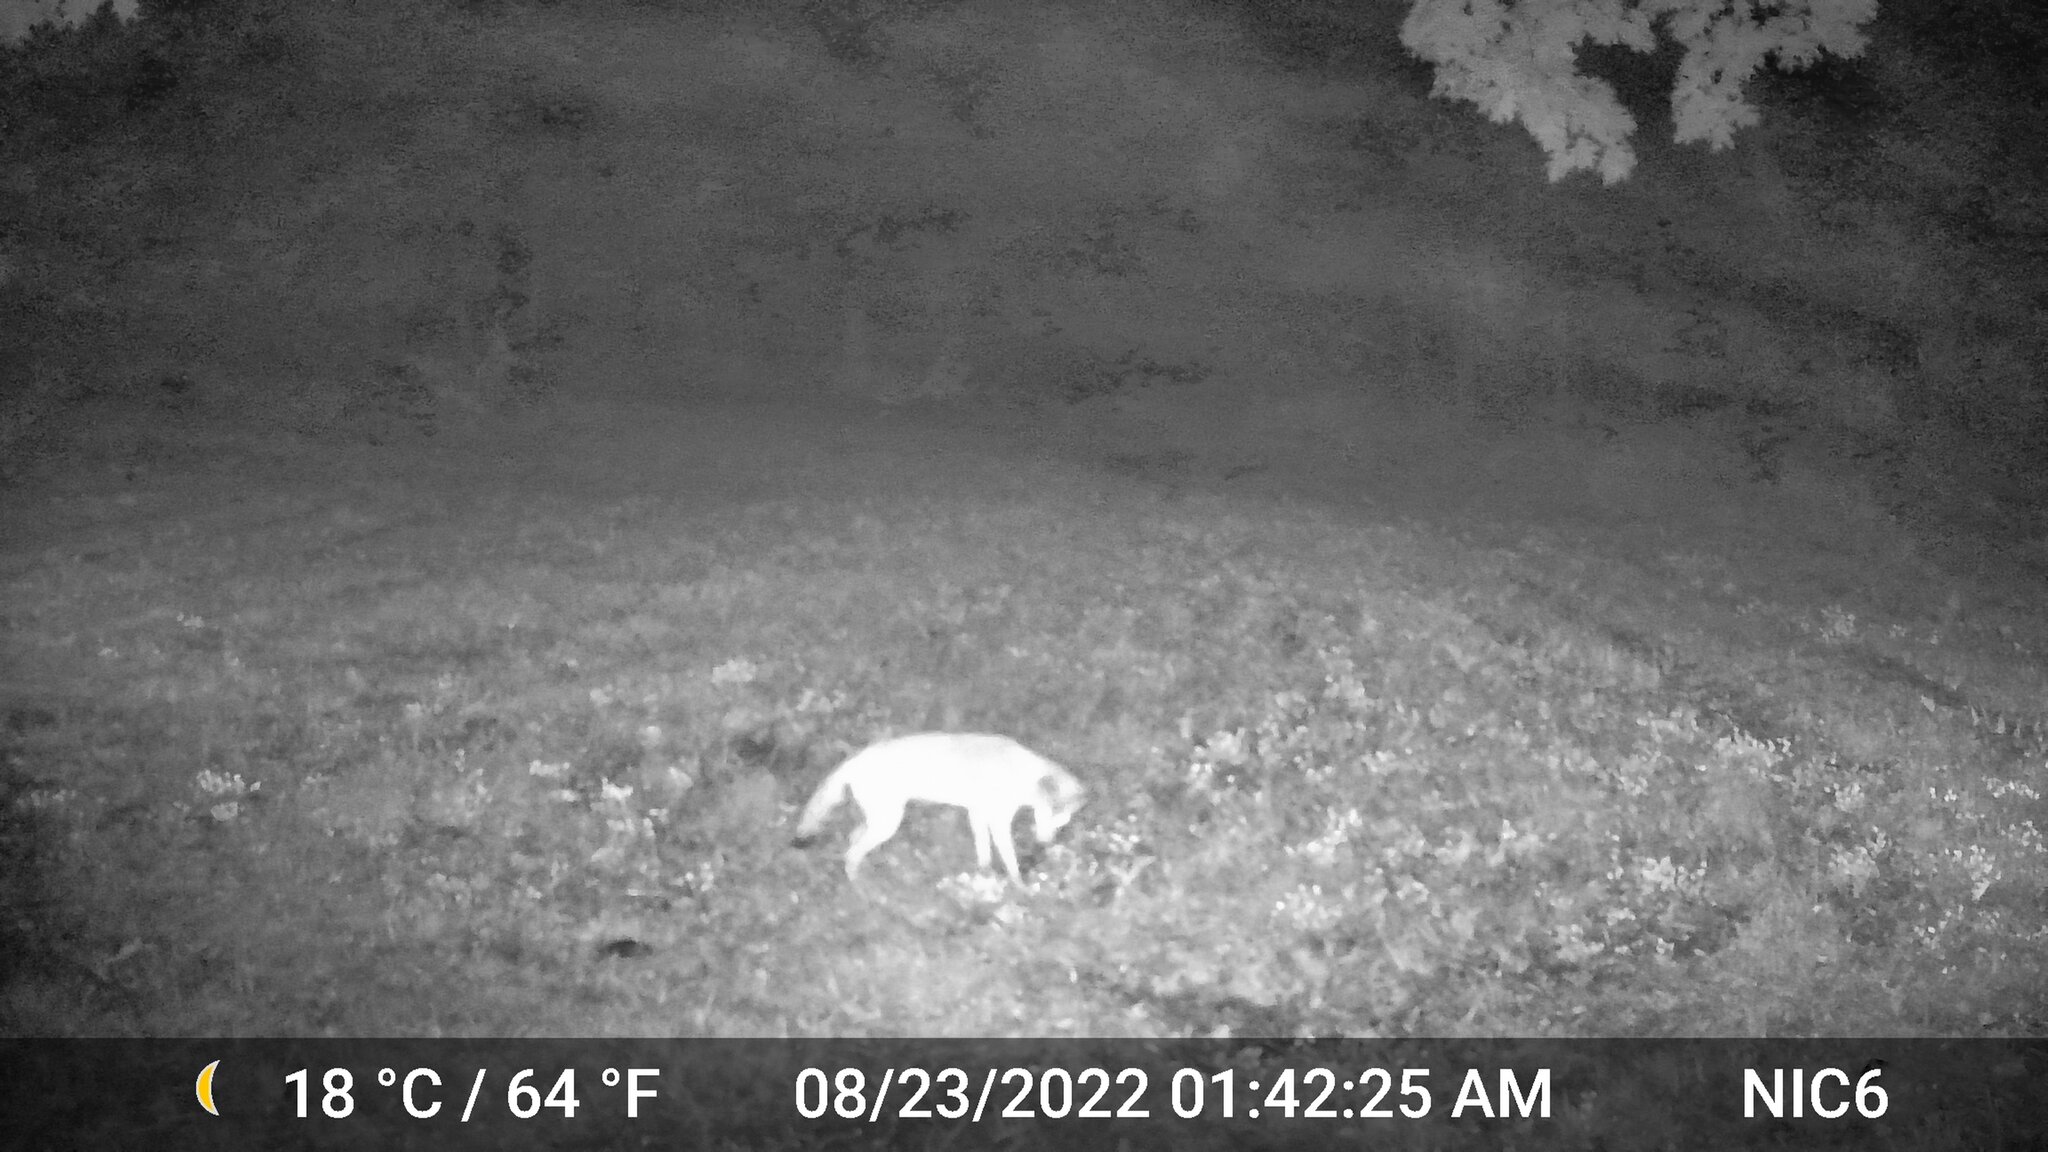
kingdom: Animalia
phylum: Chordata
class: Mammalia
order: Carnivora
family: Canidae
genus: Canis
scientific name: Canis latrans
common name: Coyote
